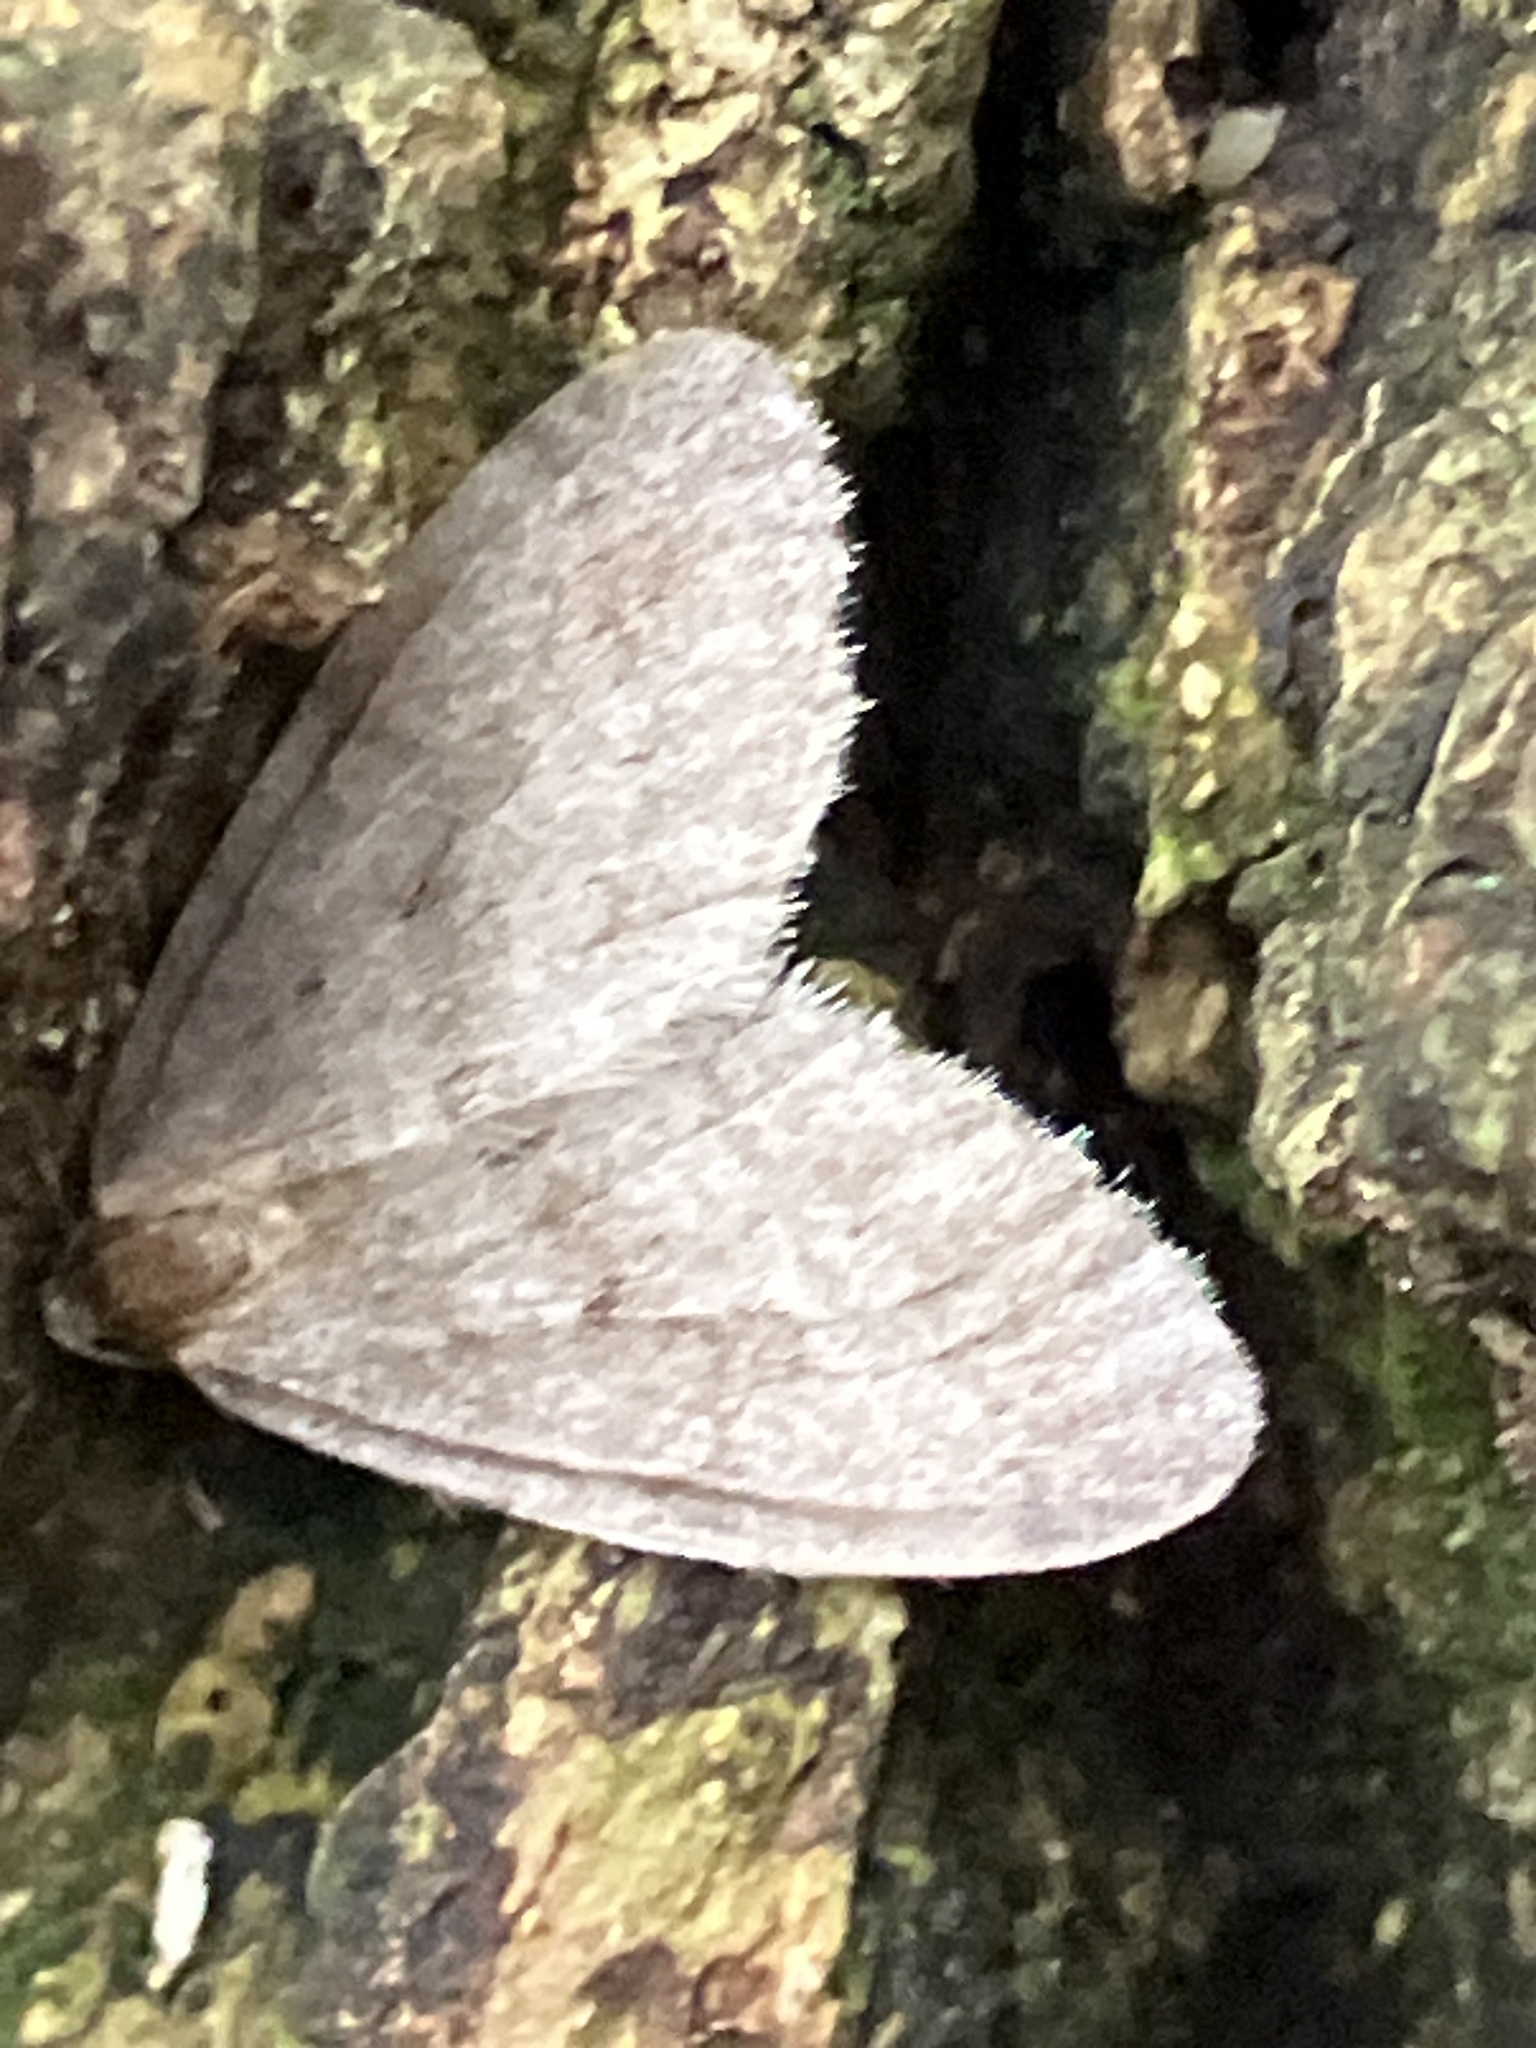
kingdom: Animalia
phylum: Arthropoda
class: Insecta
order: Lepidoptera
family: Geometridae
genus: Operophtera
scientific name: Operophtera brumata
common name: Winter moth
